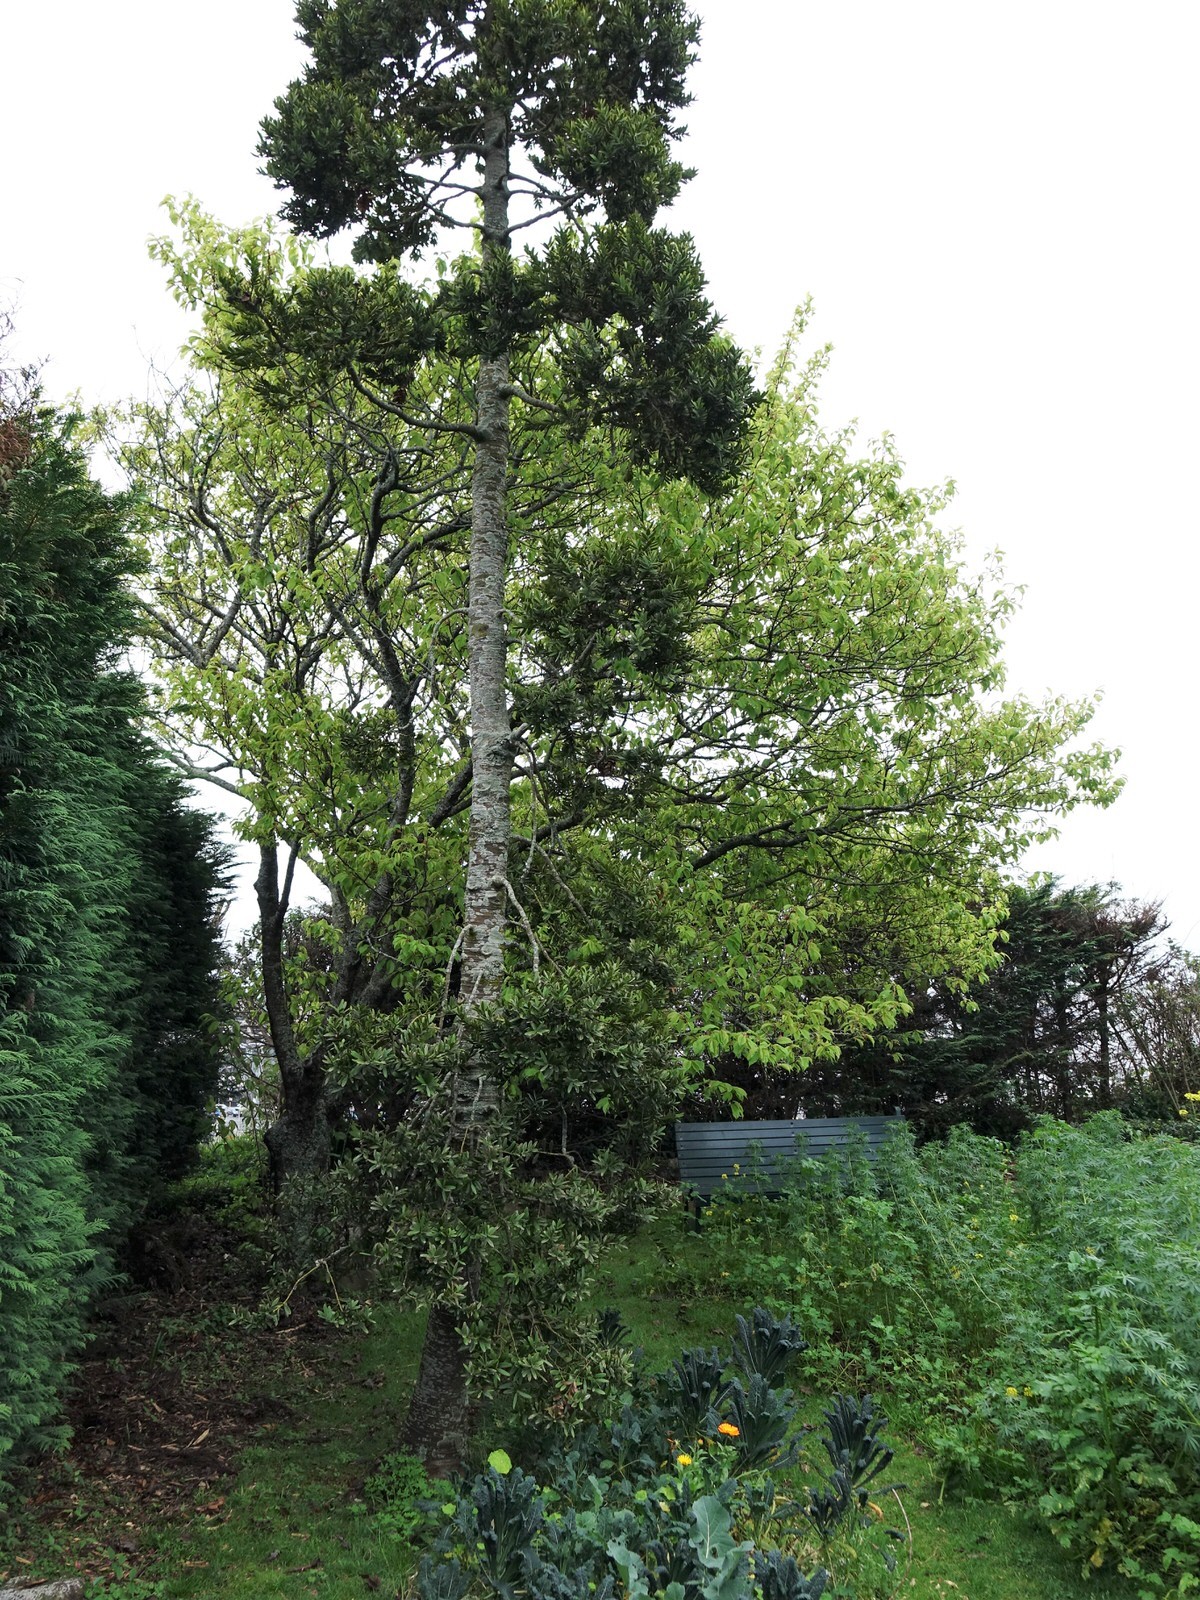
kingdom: Animalia
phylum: Arthropoda
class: Insecta
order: Lepidoptera
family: Gracillariidae
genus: Acrocercops
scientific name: Acrocercops leucotoma
